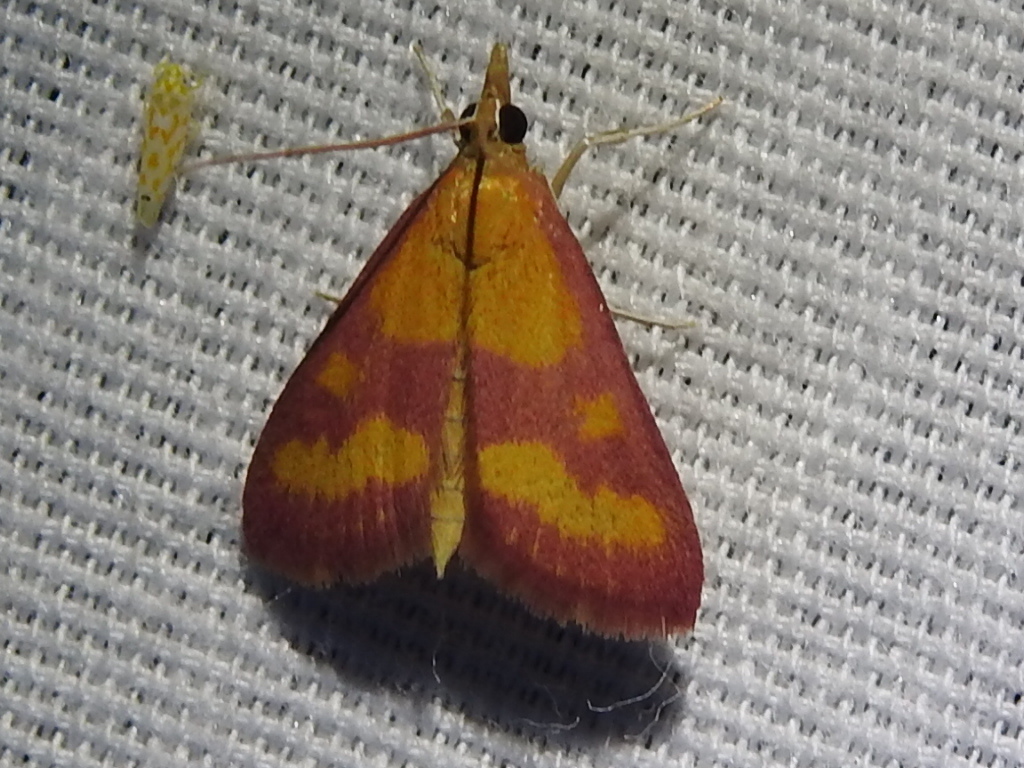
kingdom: Animalia
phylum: Arthropoda
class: Insecta
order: Lepidoptera
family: Crambidae
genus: Pyrausta
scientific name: Pyrausta laticlavia
